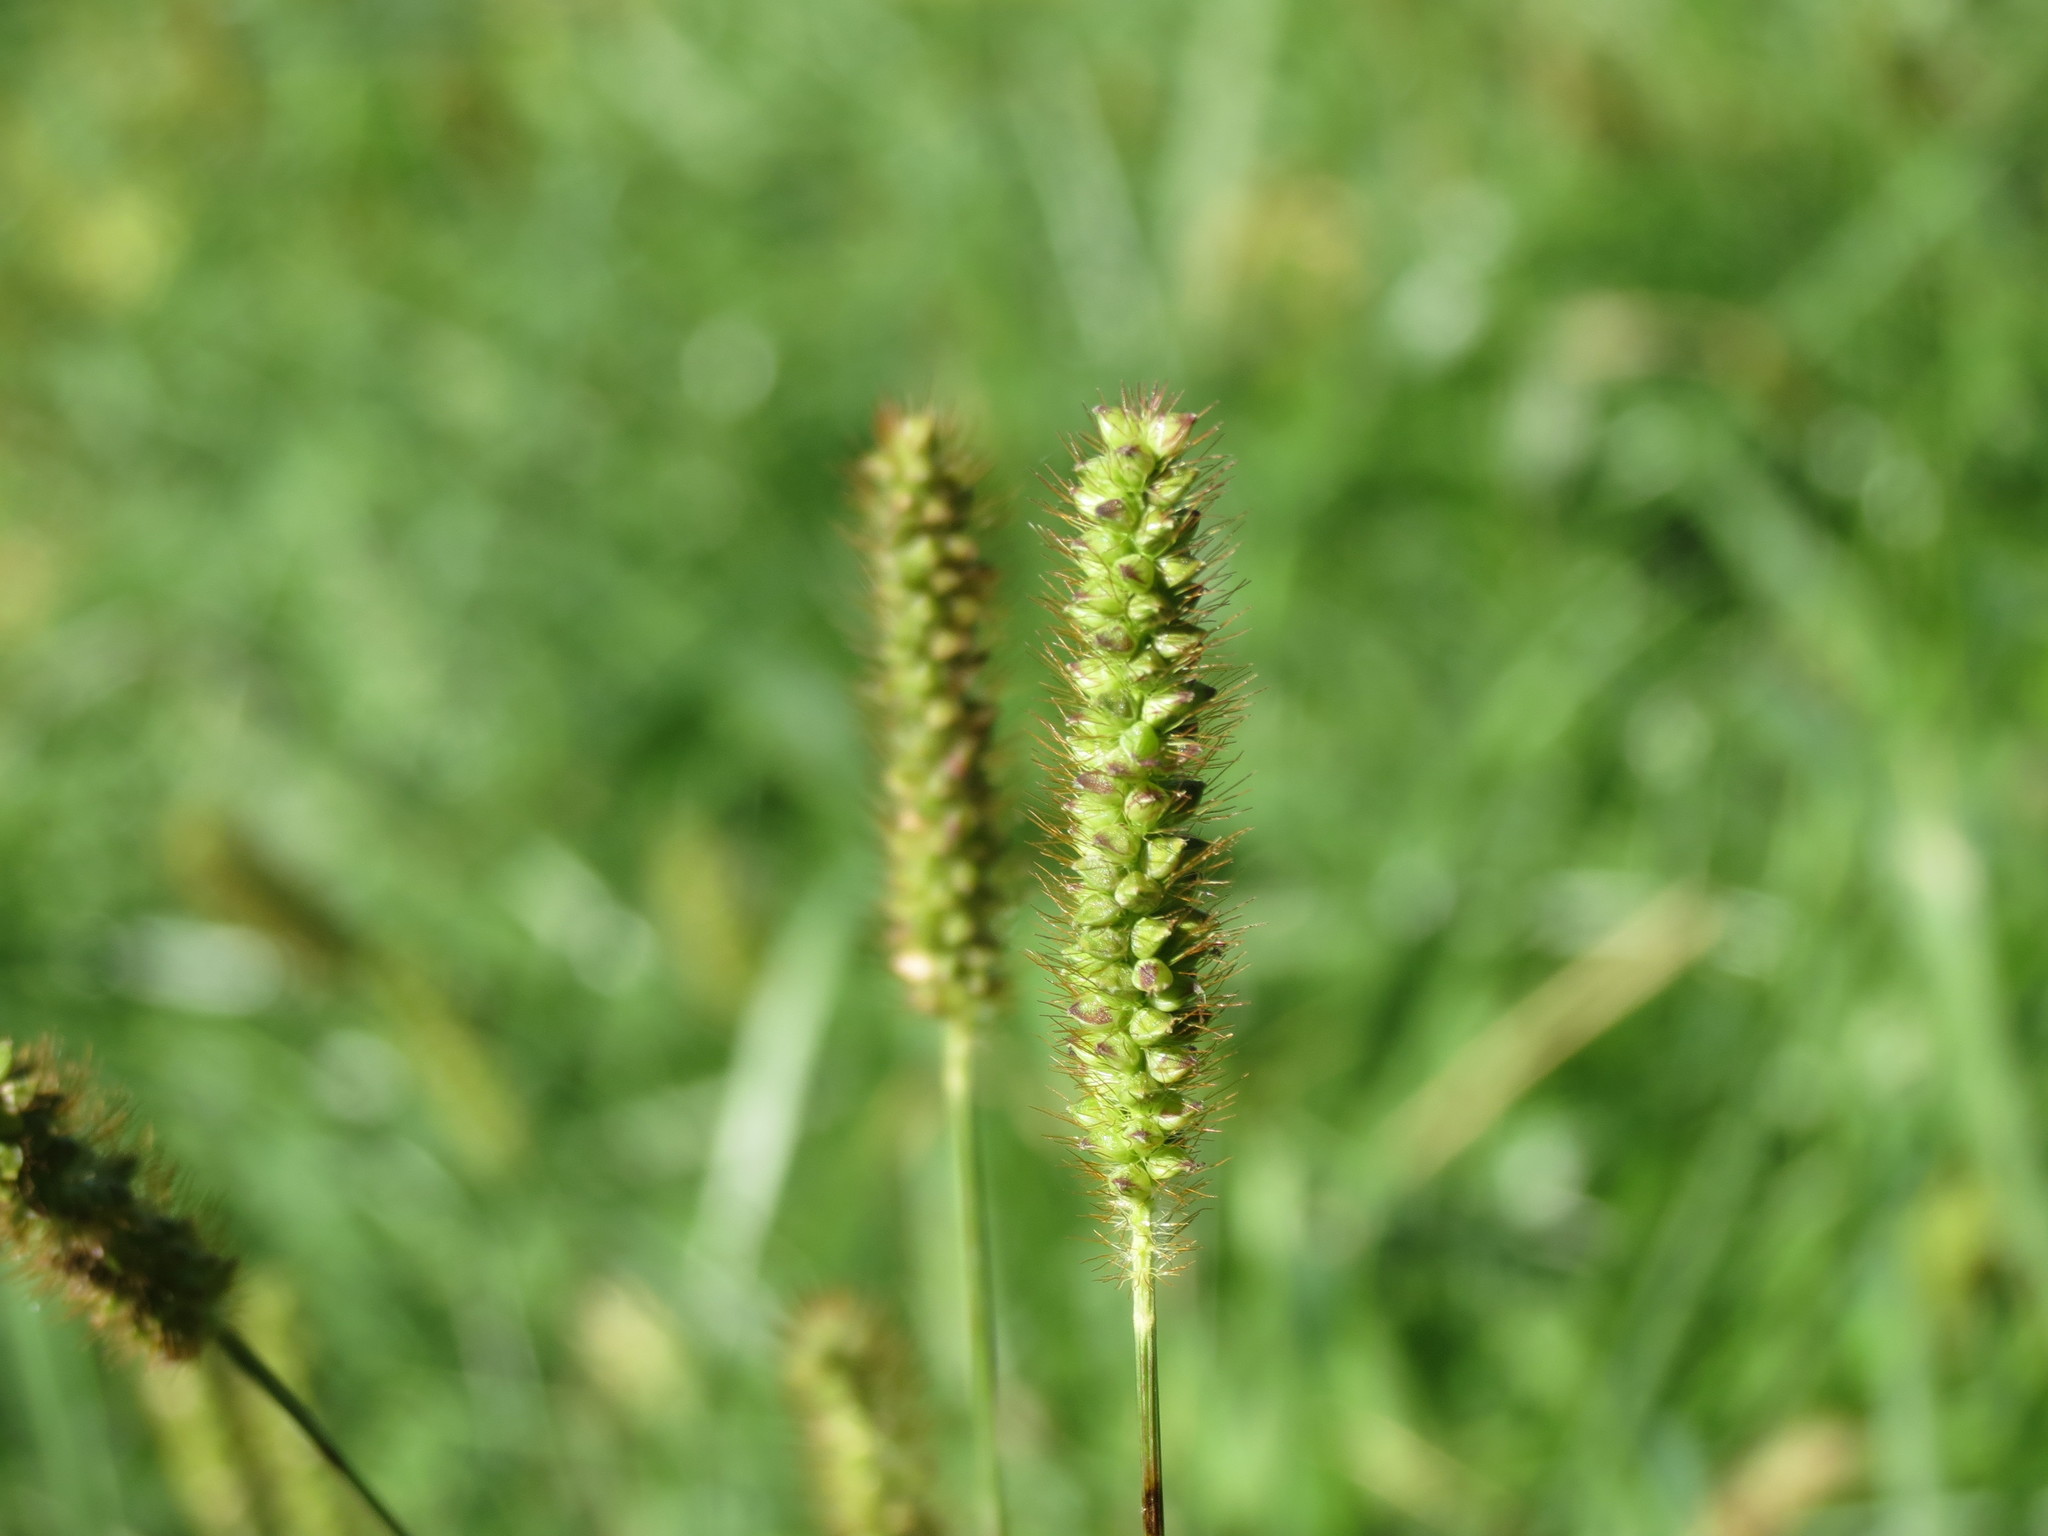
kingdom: Plantae
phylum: Tracheophyta
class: Liliopsida
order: Poales
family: Poaceae
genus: Setaria
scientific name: Setaria pumila
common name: Yellow bristle-grass
